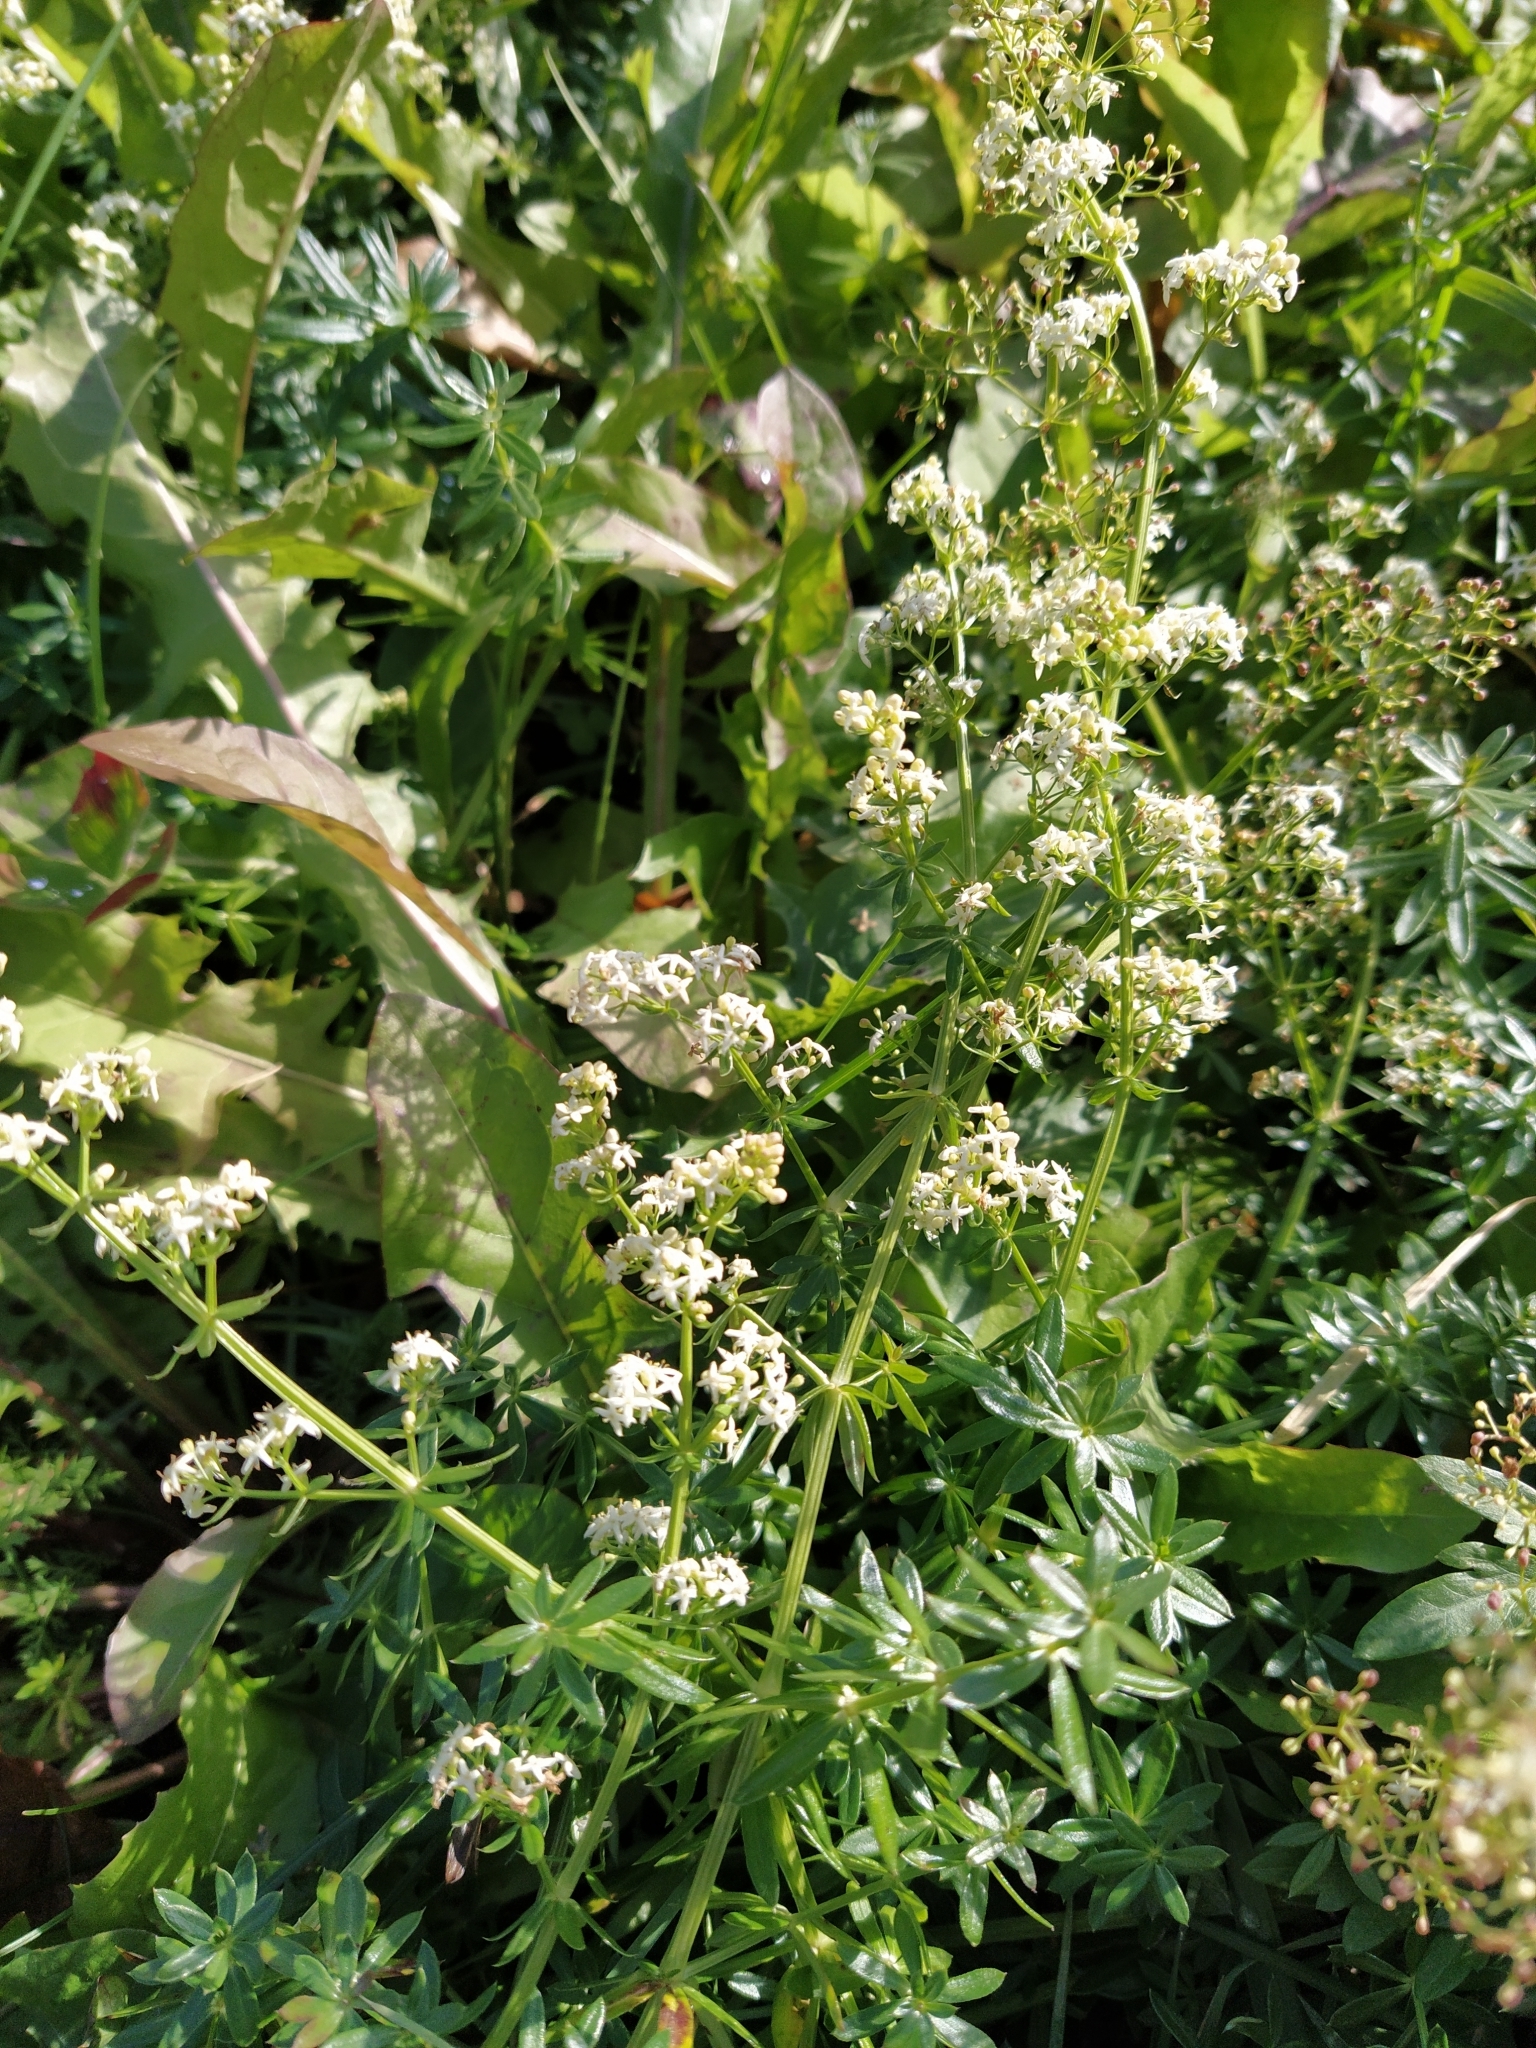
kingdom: Plantae
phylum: Tracheophyta
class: Magnoliopsida
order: Gentianales
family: Rubiaceae
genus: Galium
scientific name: Galium mollugo
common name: Hedge bedstraw
